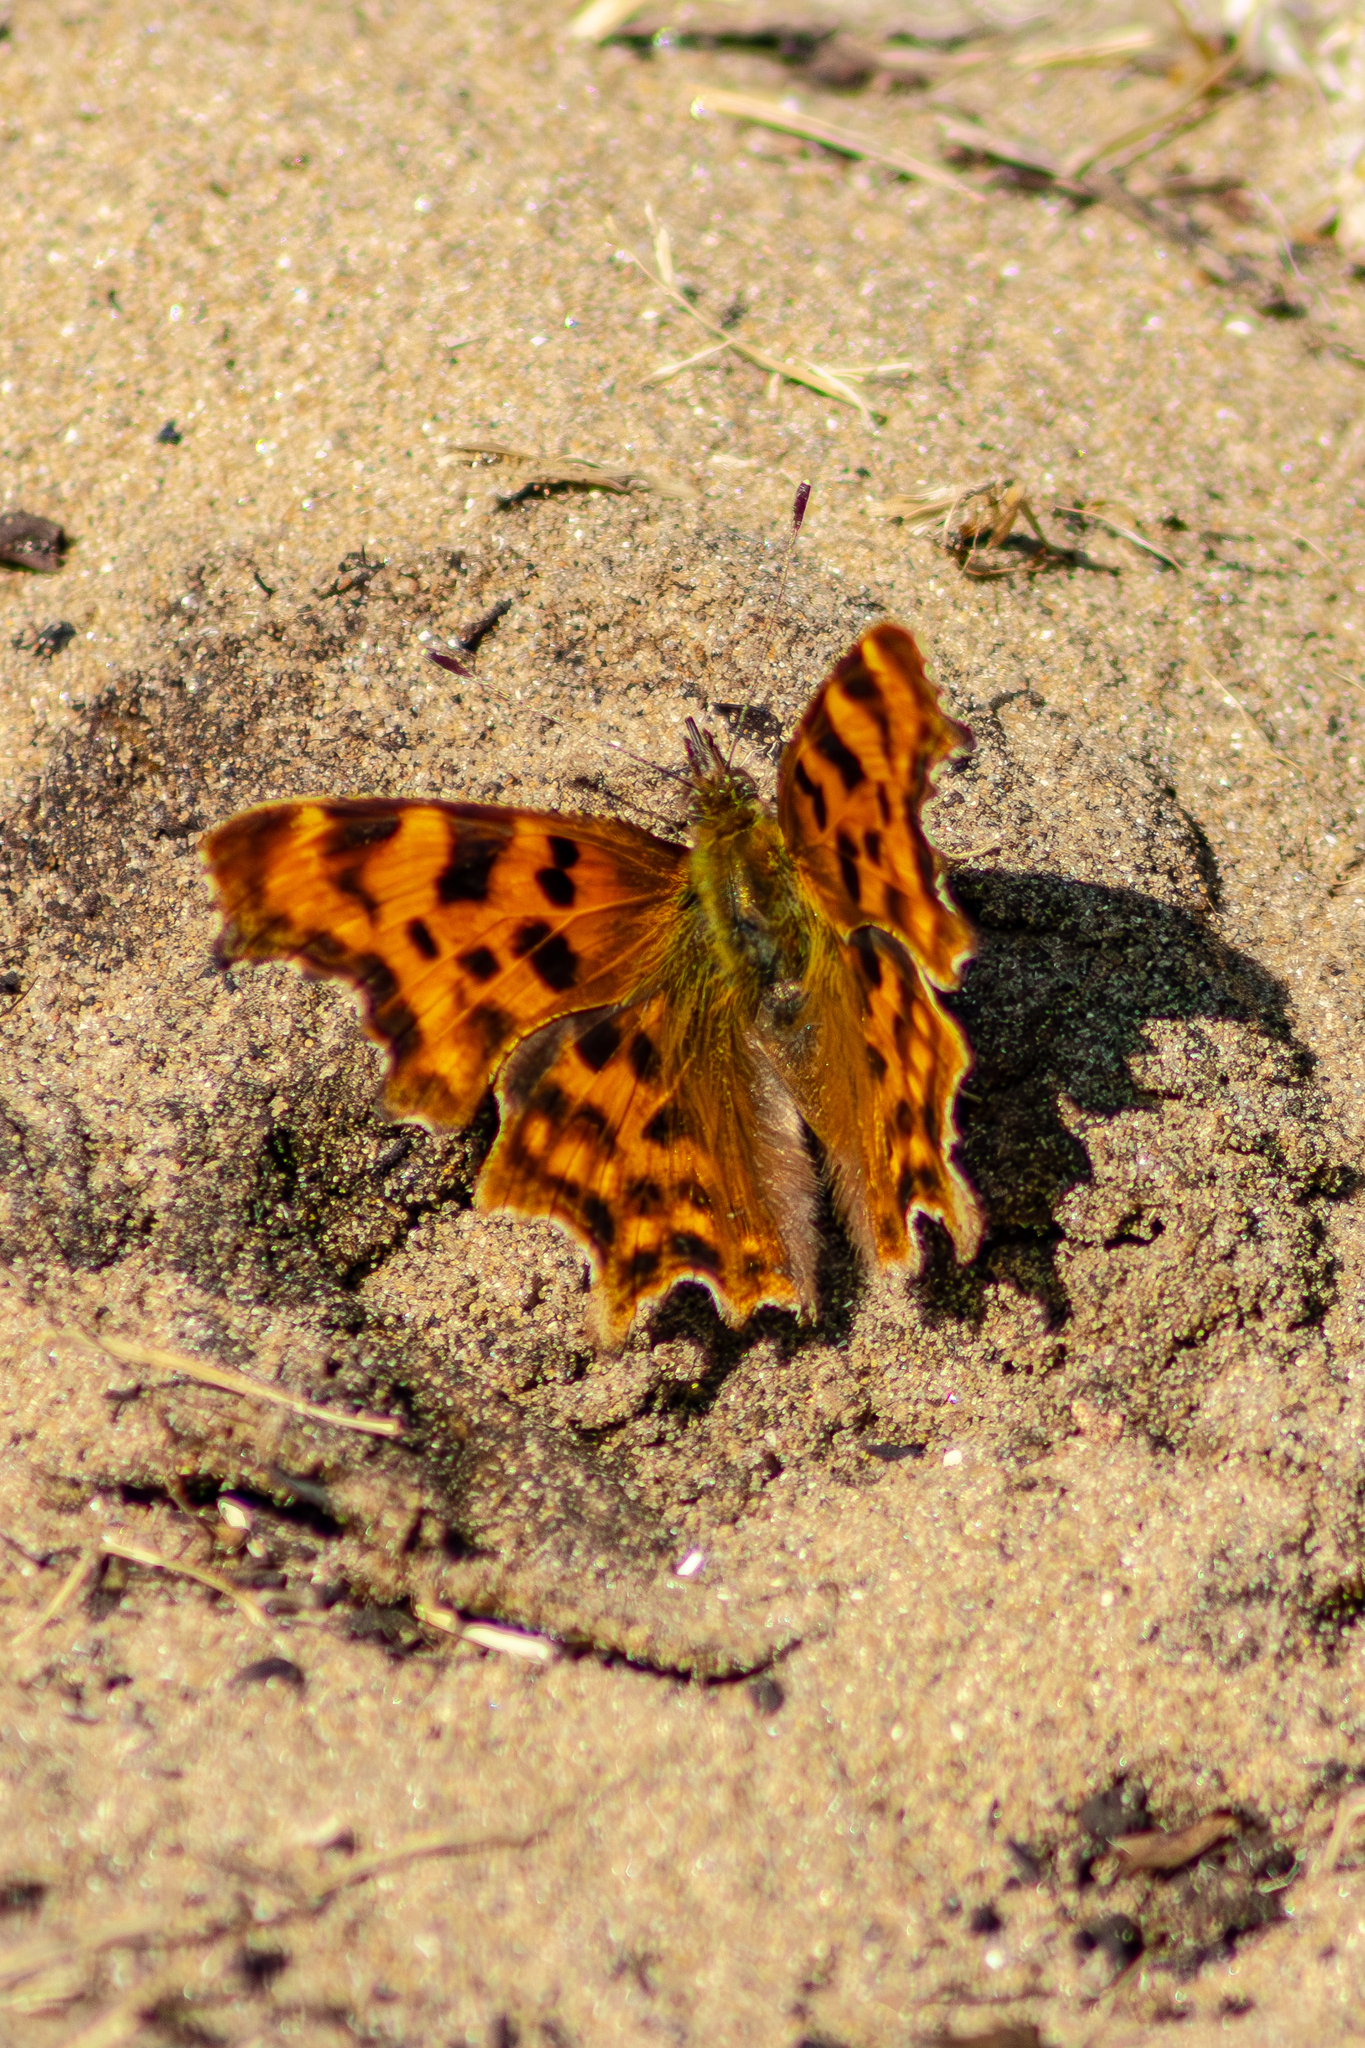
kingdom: Animalia
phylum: Arthropoda
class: Insecta
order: Lepidoptera
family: Nymphalidae
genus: Polygonia
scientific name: Polygonia c-album
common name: Comma
